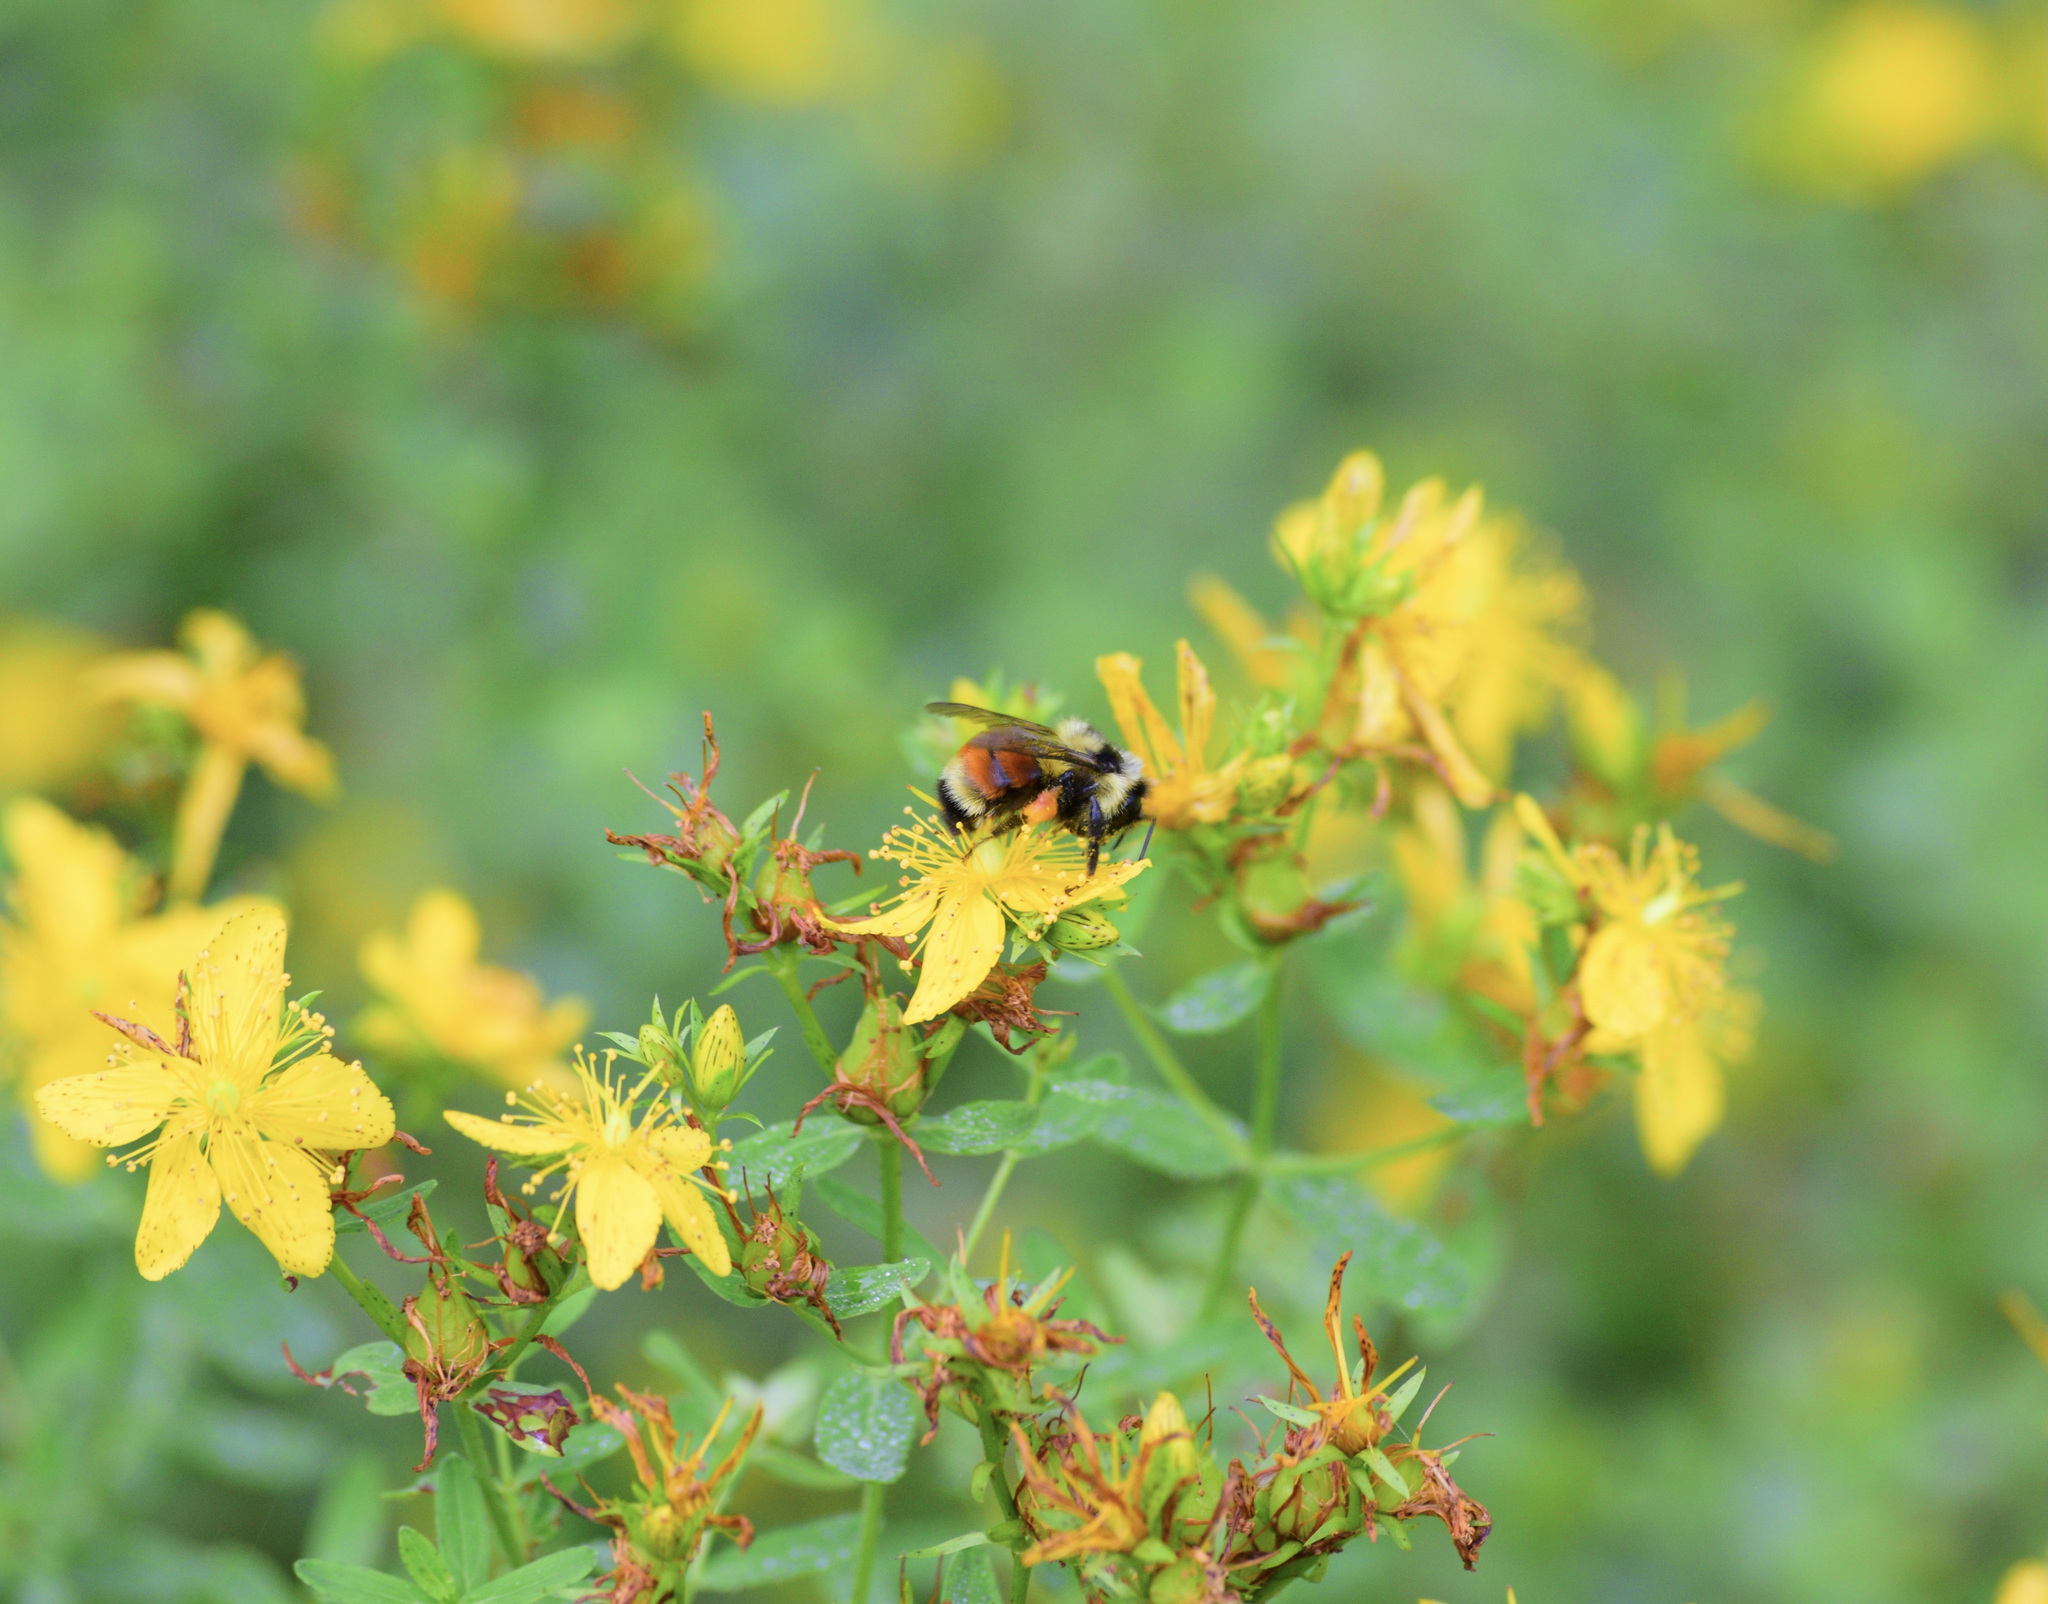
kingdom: Animalia
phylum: Arthropoda
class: Insecta
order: Hymenoptera
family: Apidae
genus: Bombus
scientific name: Bombus ternarius
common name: Tri-colored bumble bee
